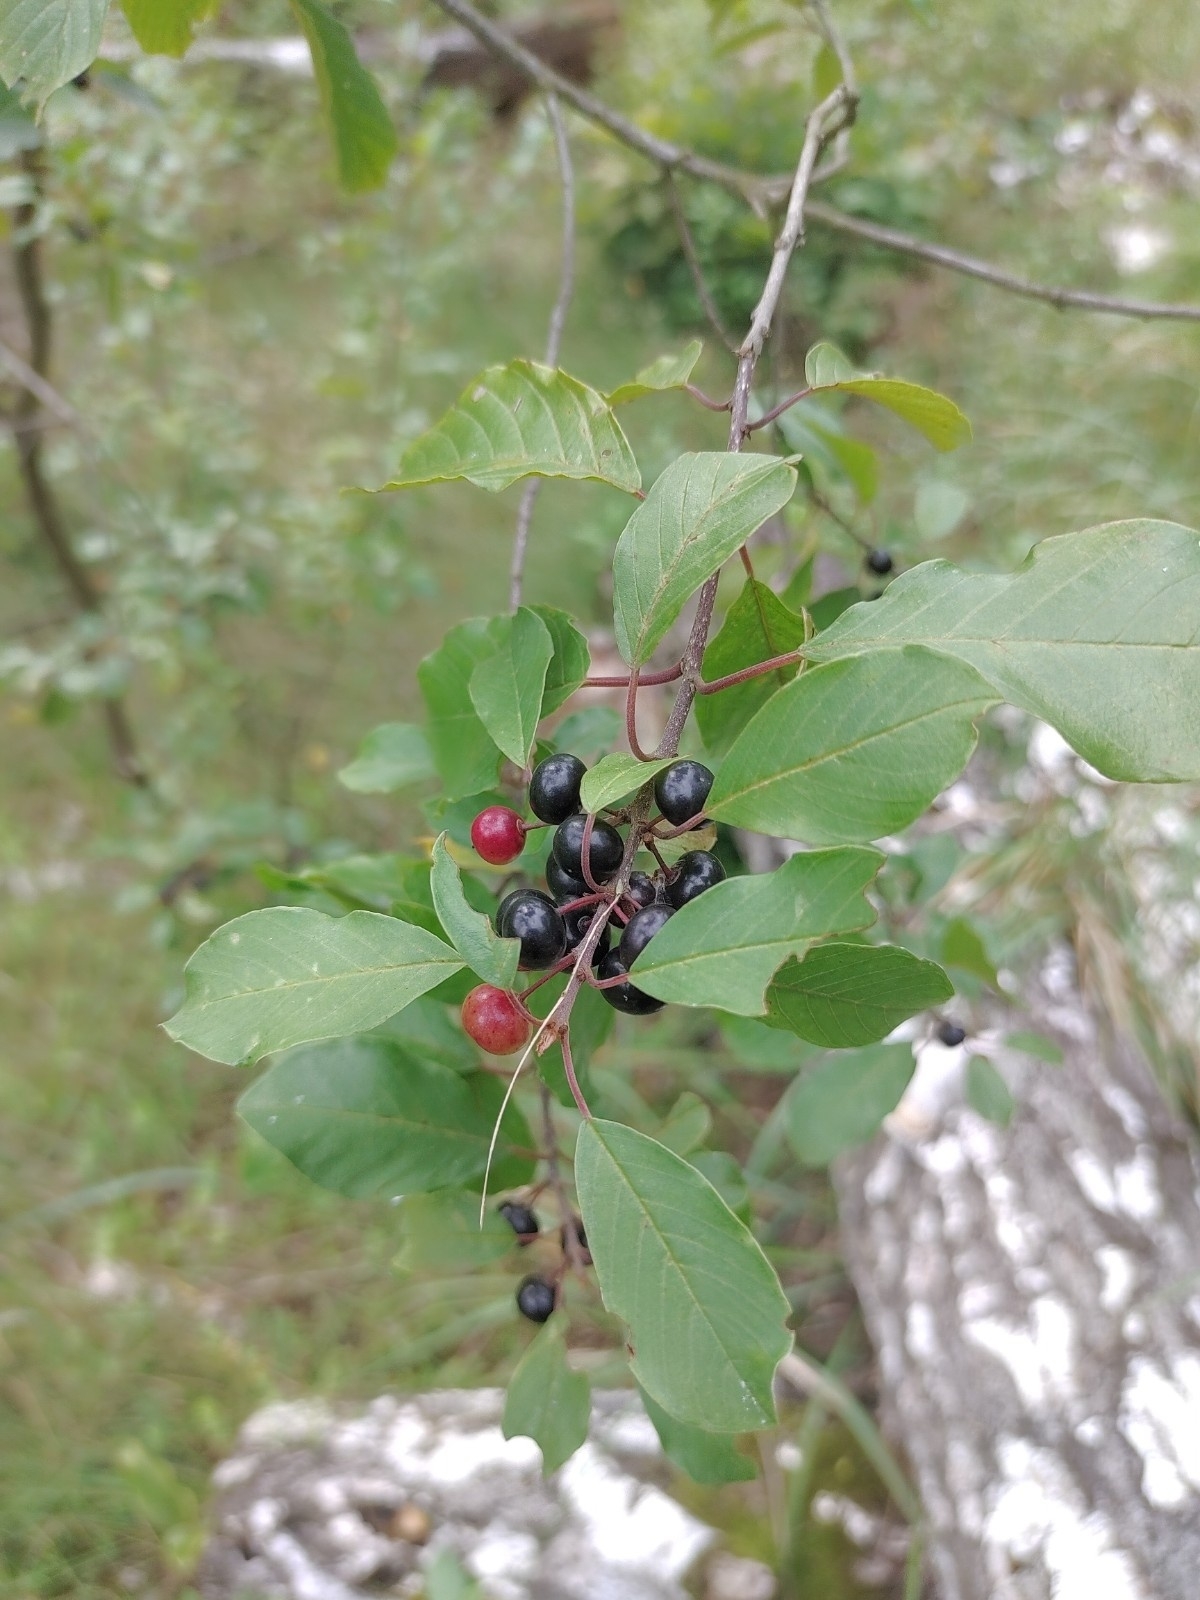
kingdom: Plantae
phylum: Tracheophyta
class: Magnoliopsida
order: Rosales
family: Rhamnaceae
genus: Frangula
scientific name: Frangula alnus
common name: Alder buckthorn
